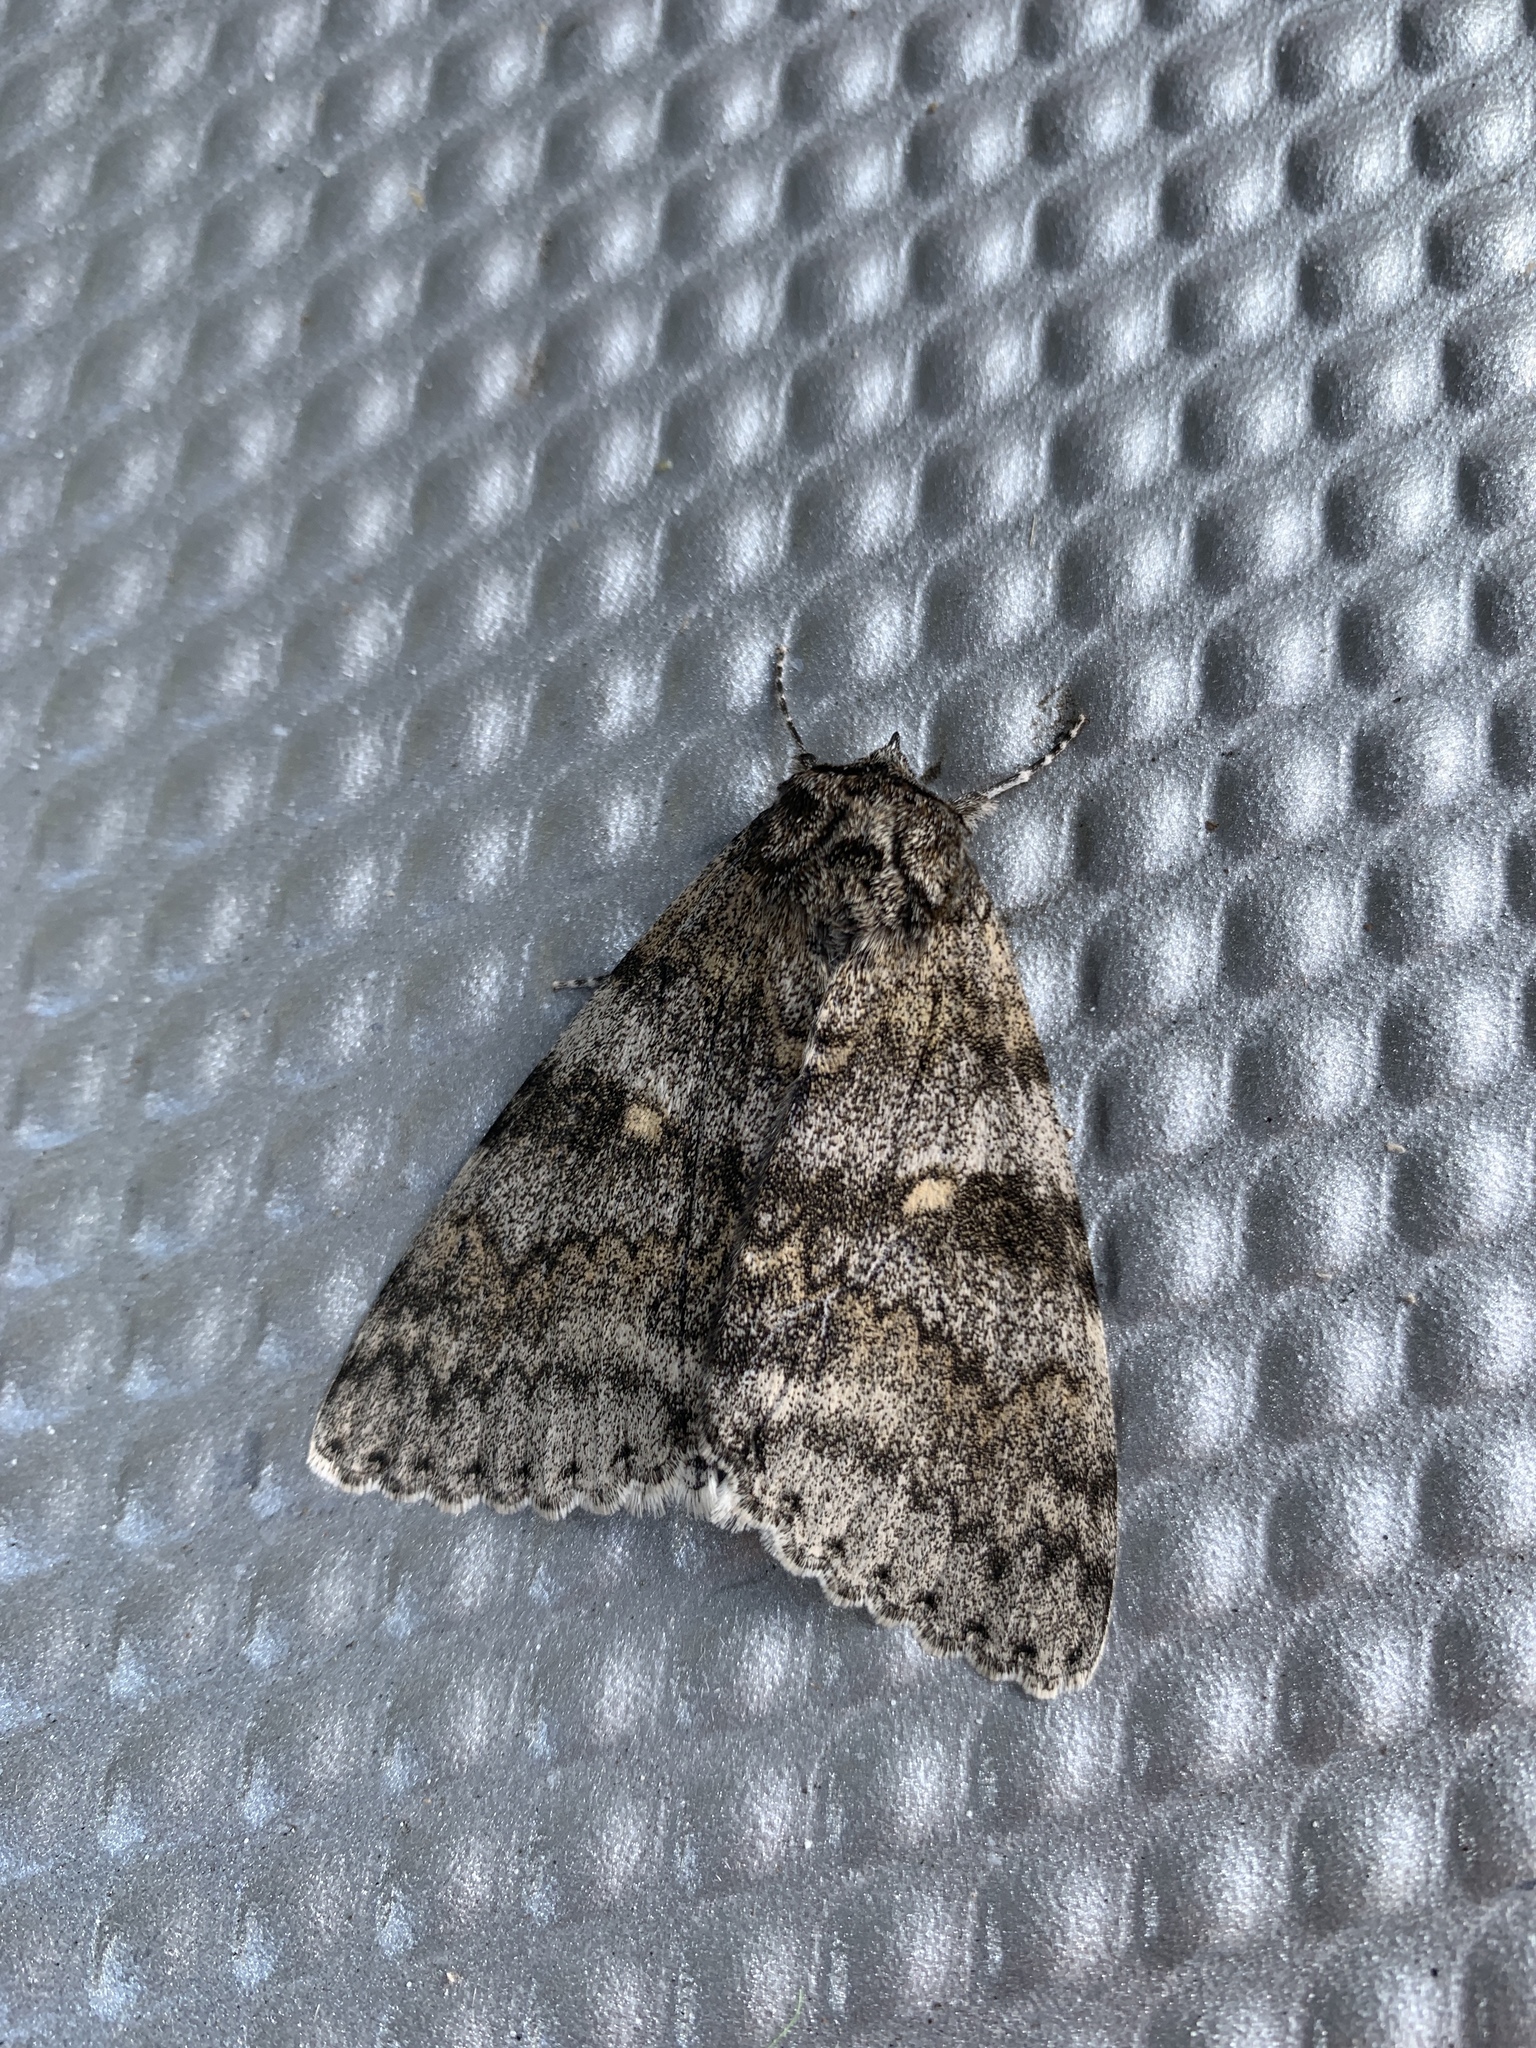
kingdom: Animalia
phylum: Arthropoda
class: Insecta
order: Lepidoptera
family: Erebidae
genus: Catocala
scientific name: Catocala relicta
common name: White underwing
